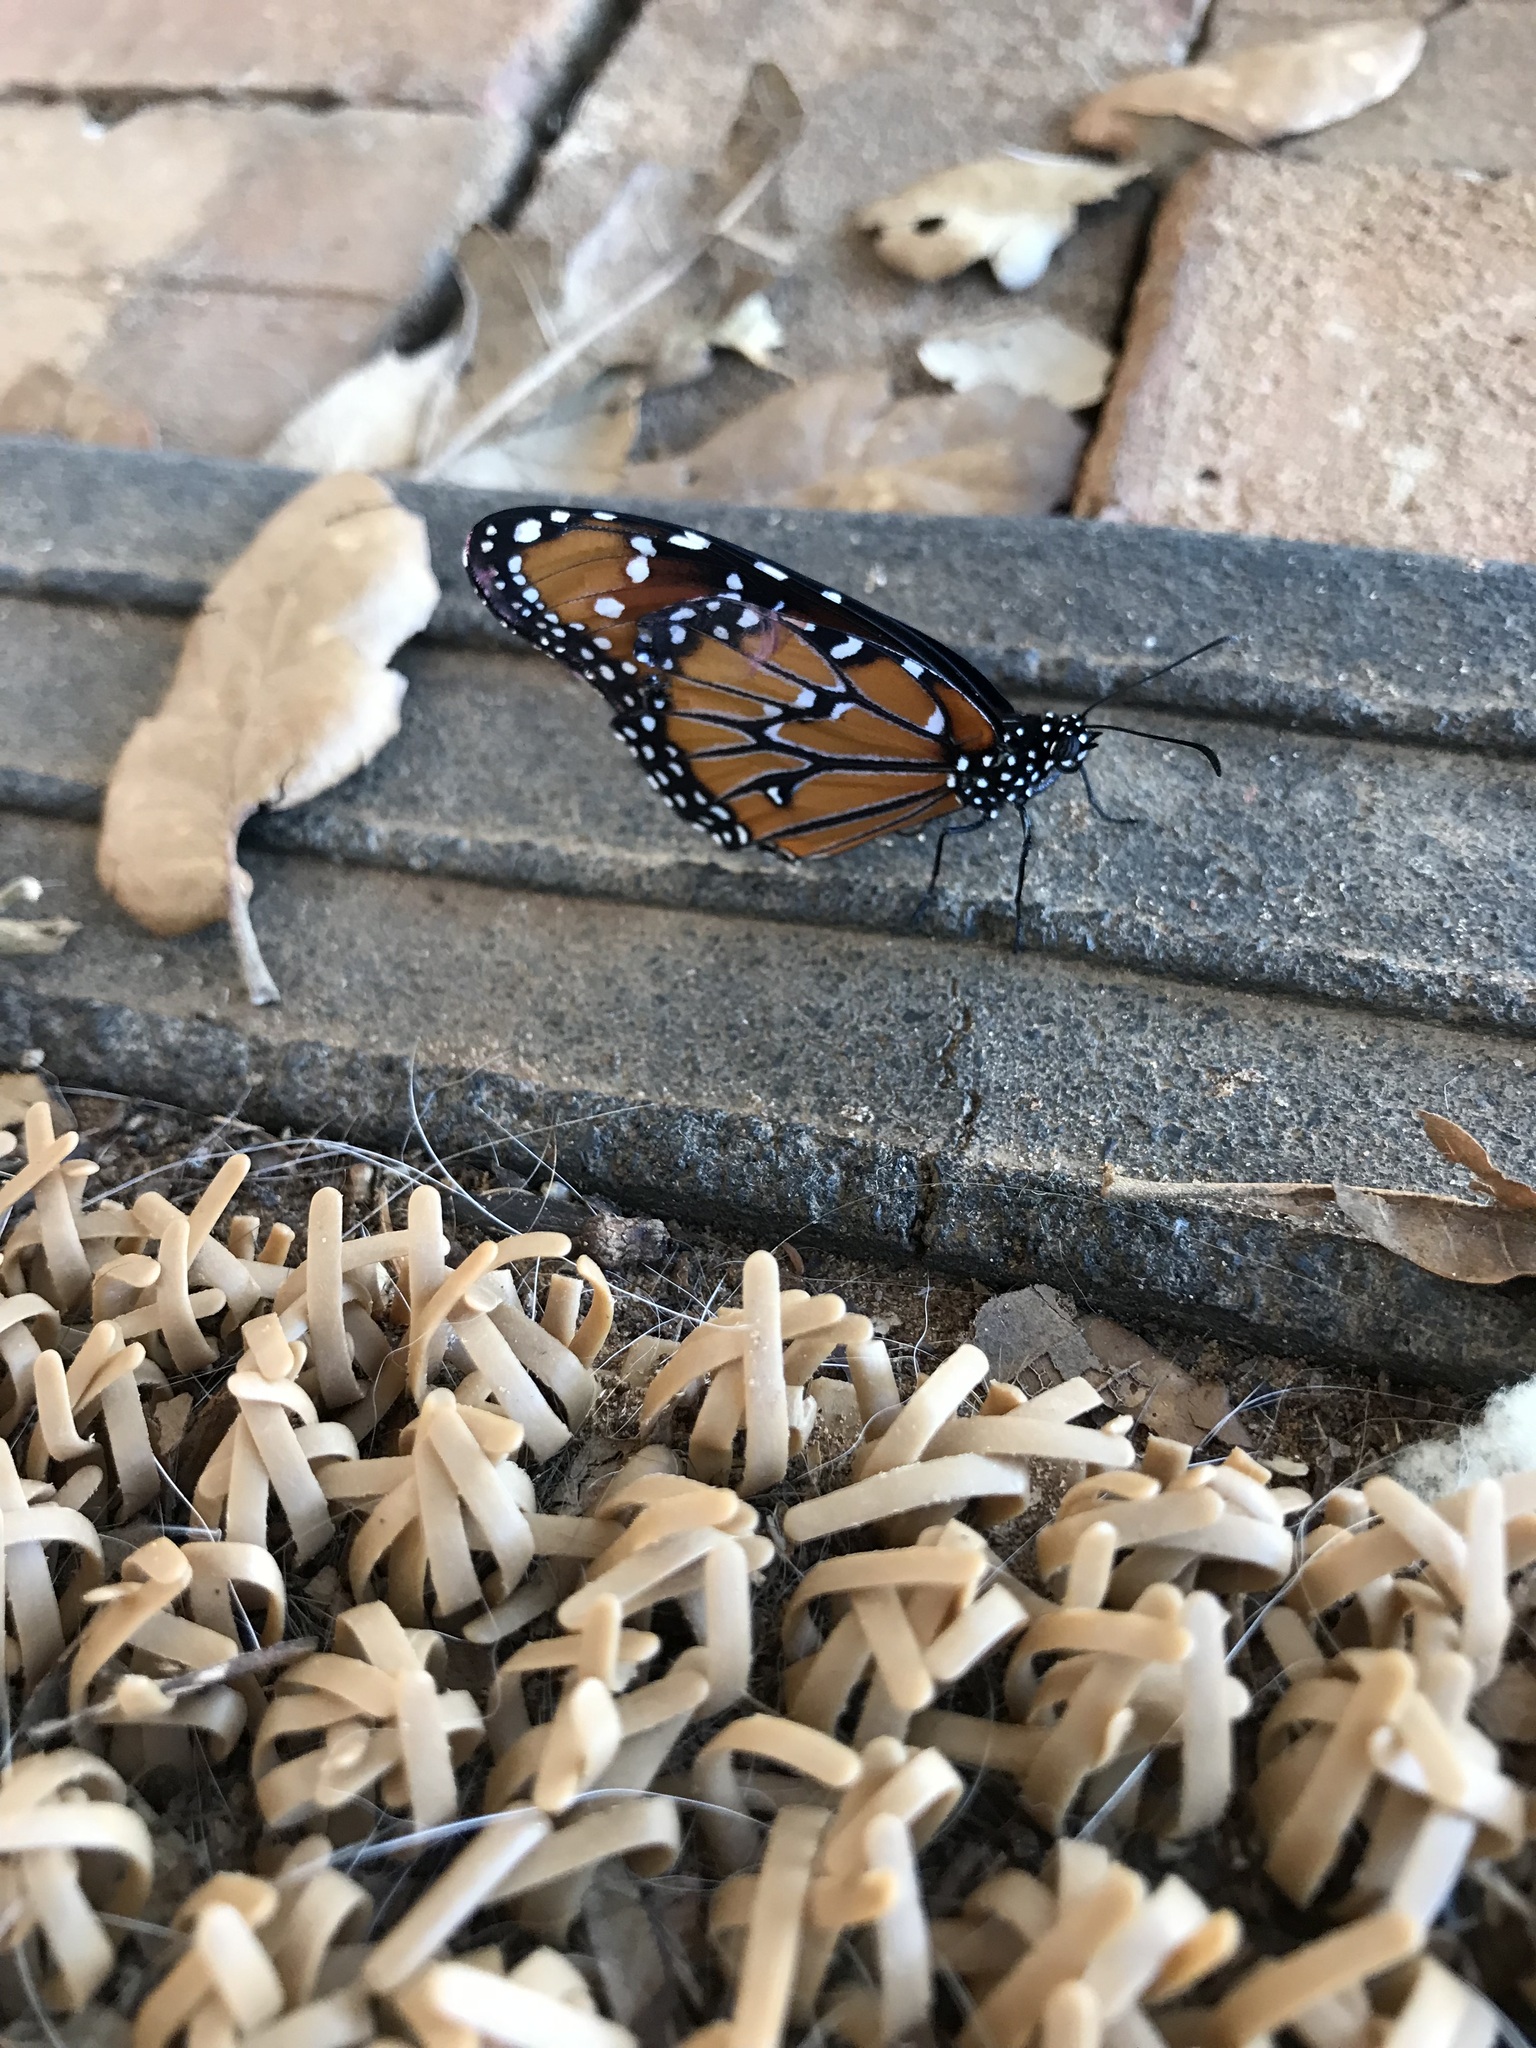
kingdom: Animalia
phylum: Arthropoda
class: Insecta
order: Lepidoptera
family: Nymphalidae
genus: Danaus
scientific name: Danaus gilippus
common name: Queen
